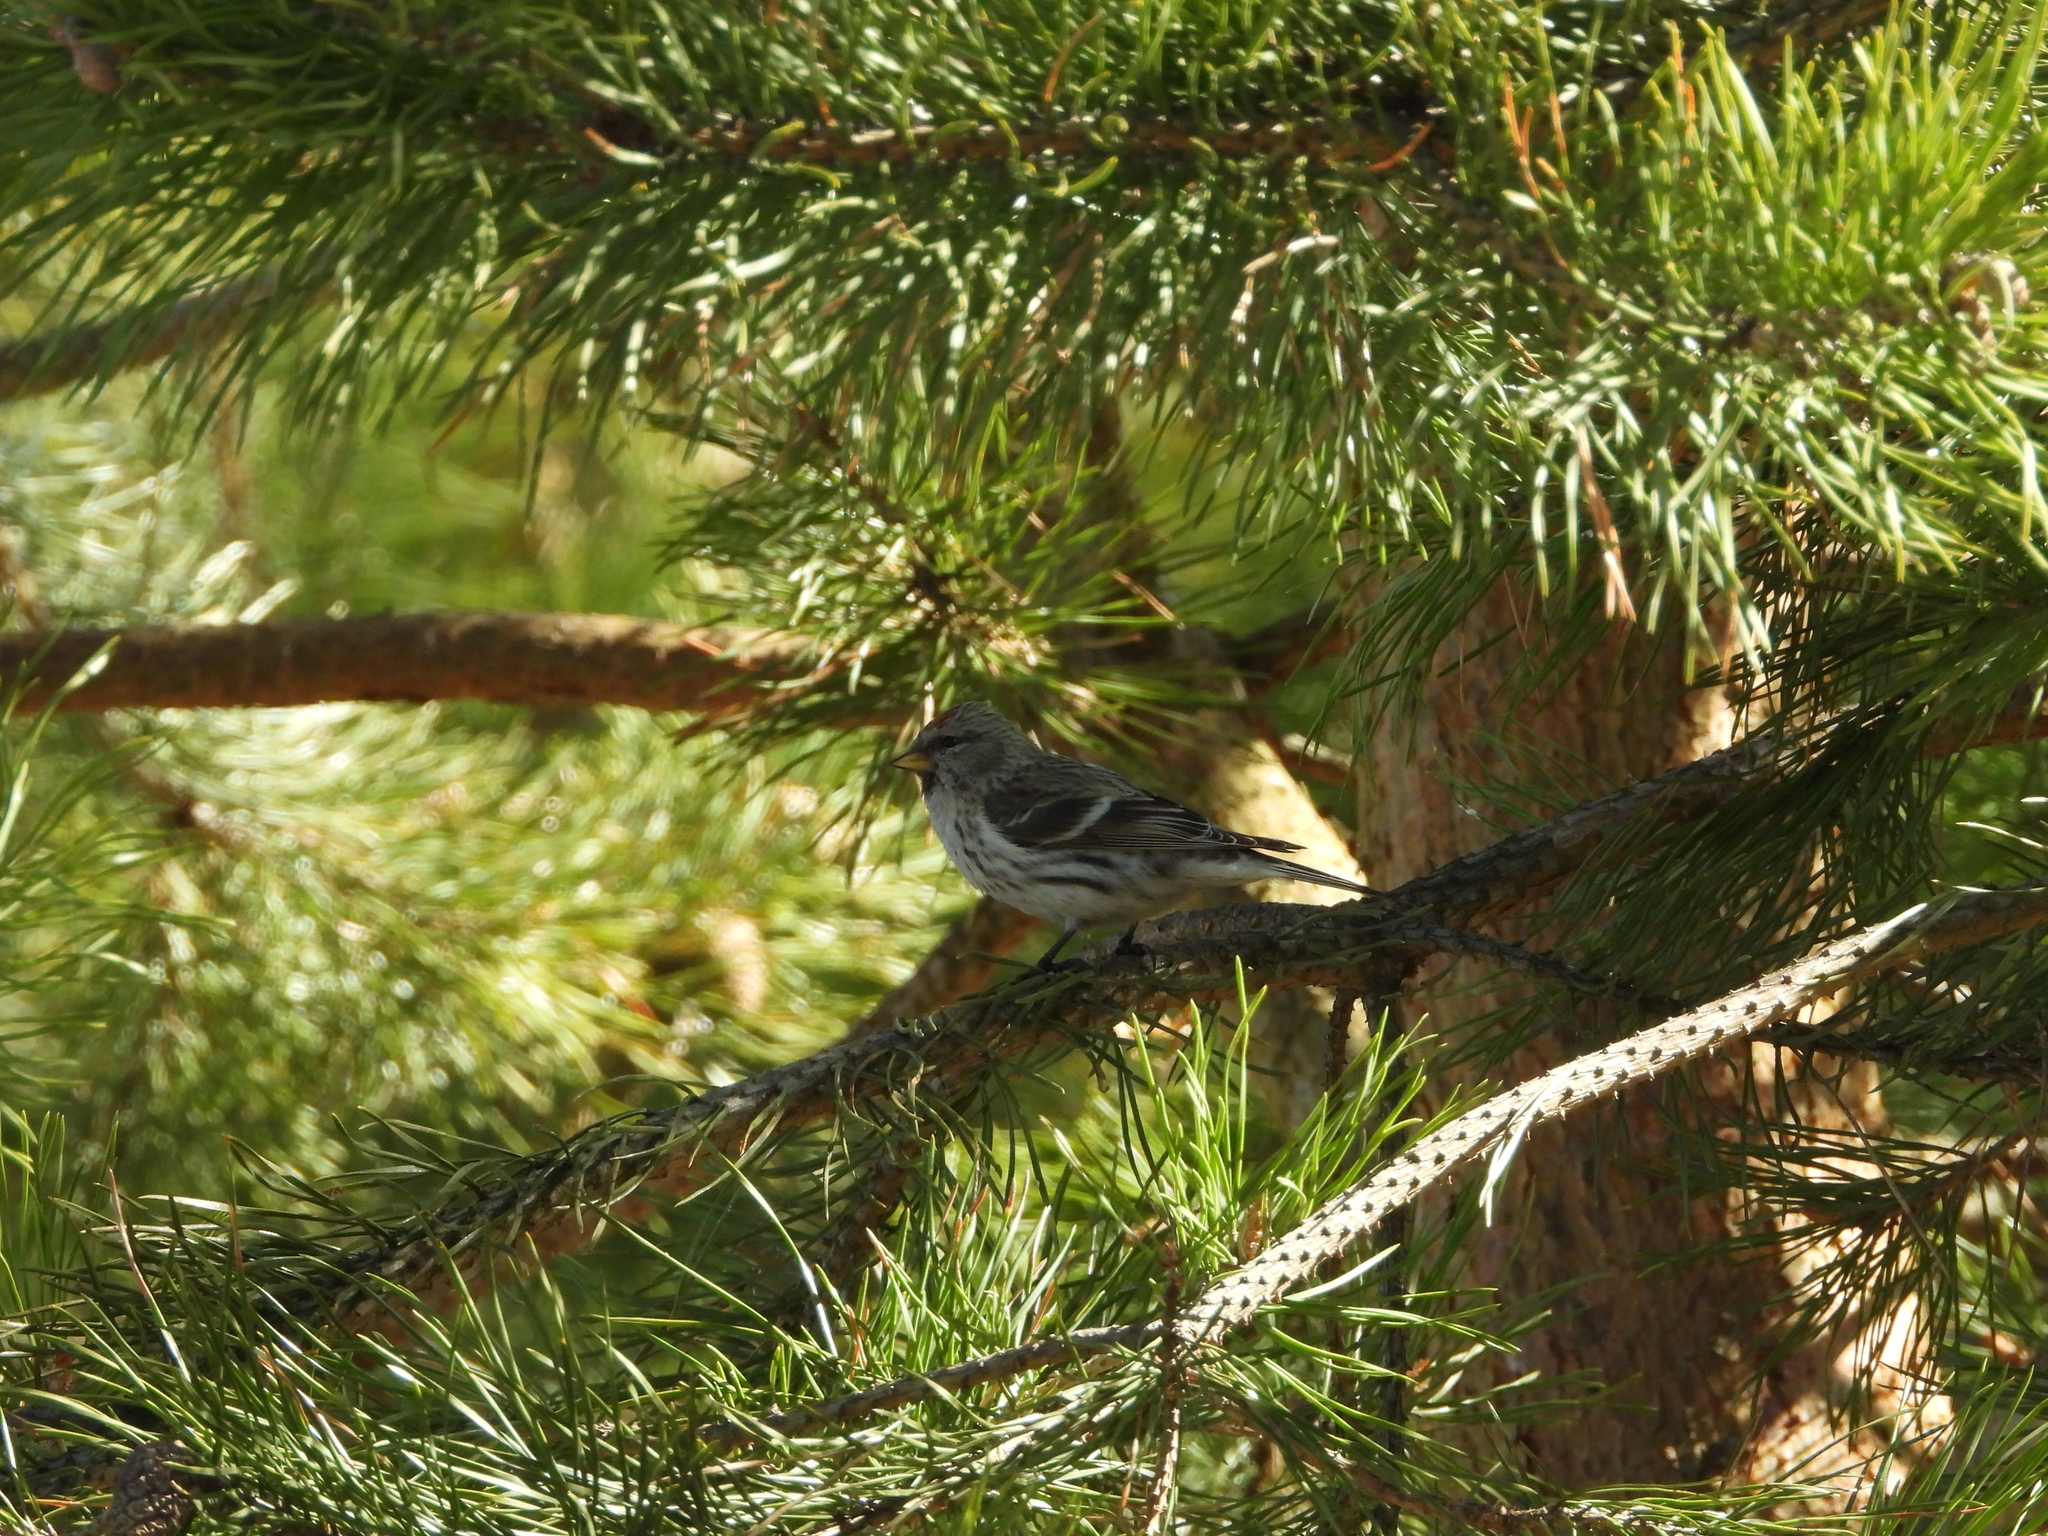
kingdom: Animalia
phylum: Chordata
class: Aves
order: Passeriformes
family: Fringillidae
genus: Acanthis
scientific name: Acanthis flammea
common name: Common redpoll
